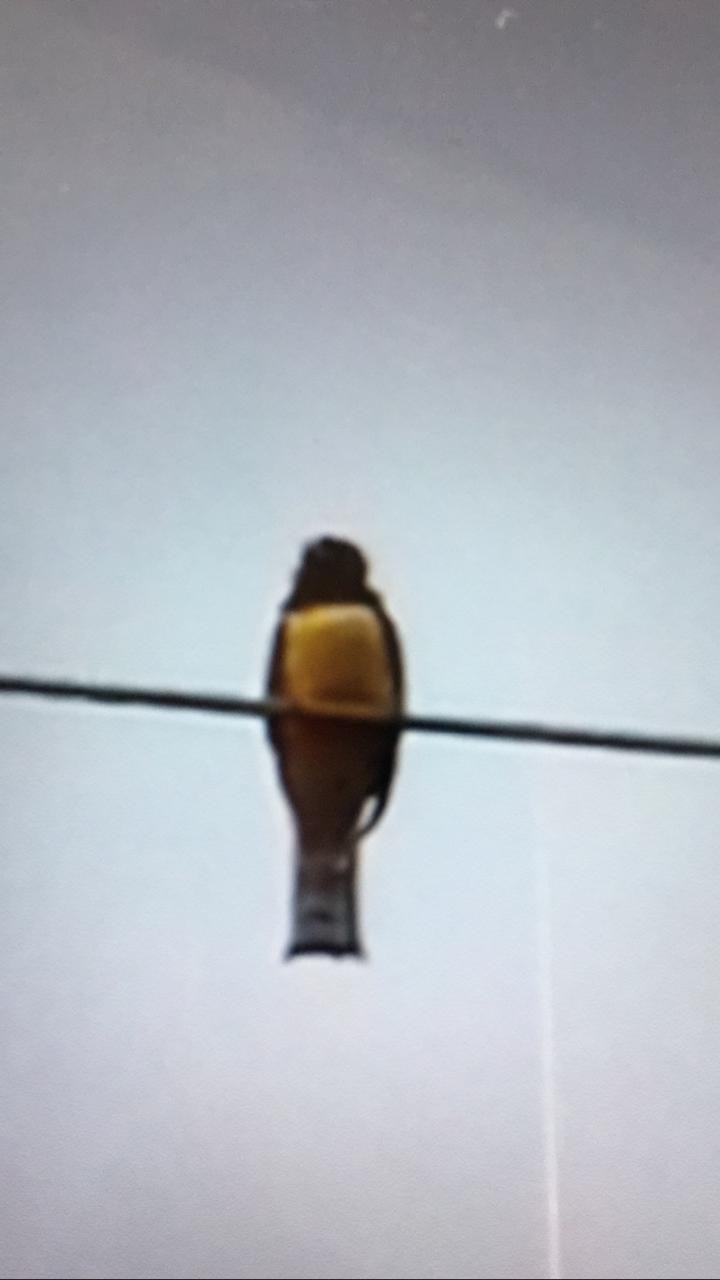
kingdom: Animalia
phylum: Chordata
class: Aves
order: Trogoniformes
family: Trogonidae
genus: Trogon
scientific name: Trogon caligatus
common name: Gartered trogon
